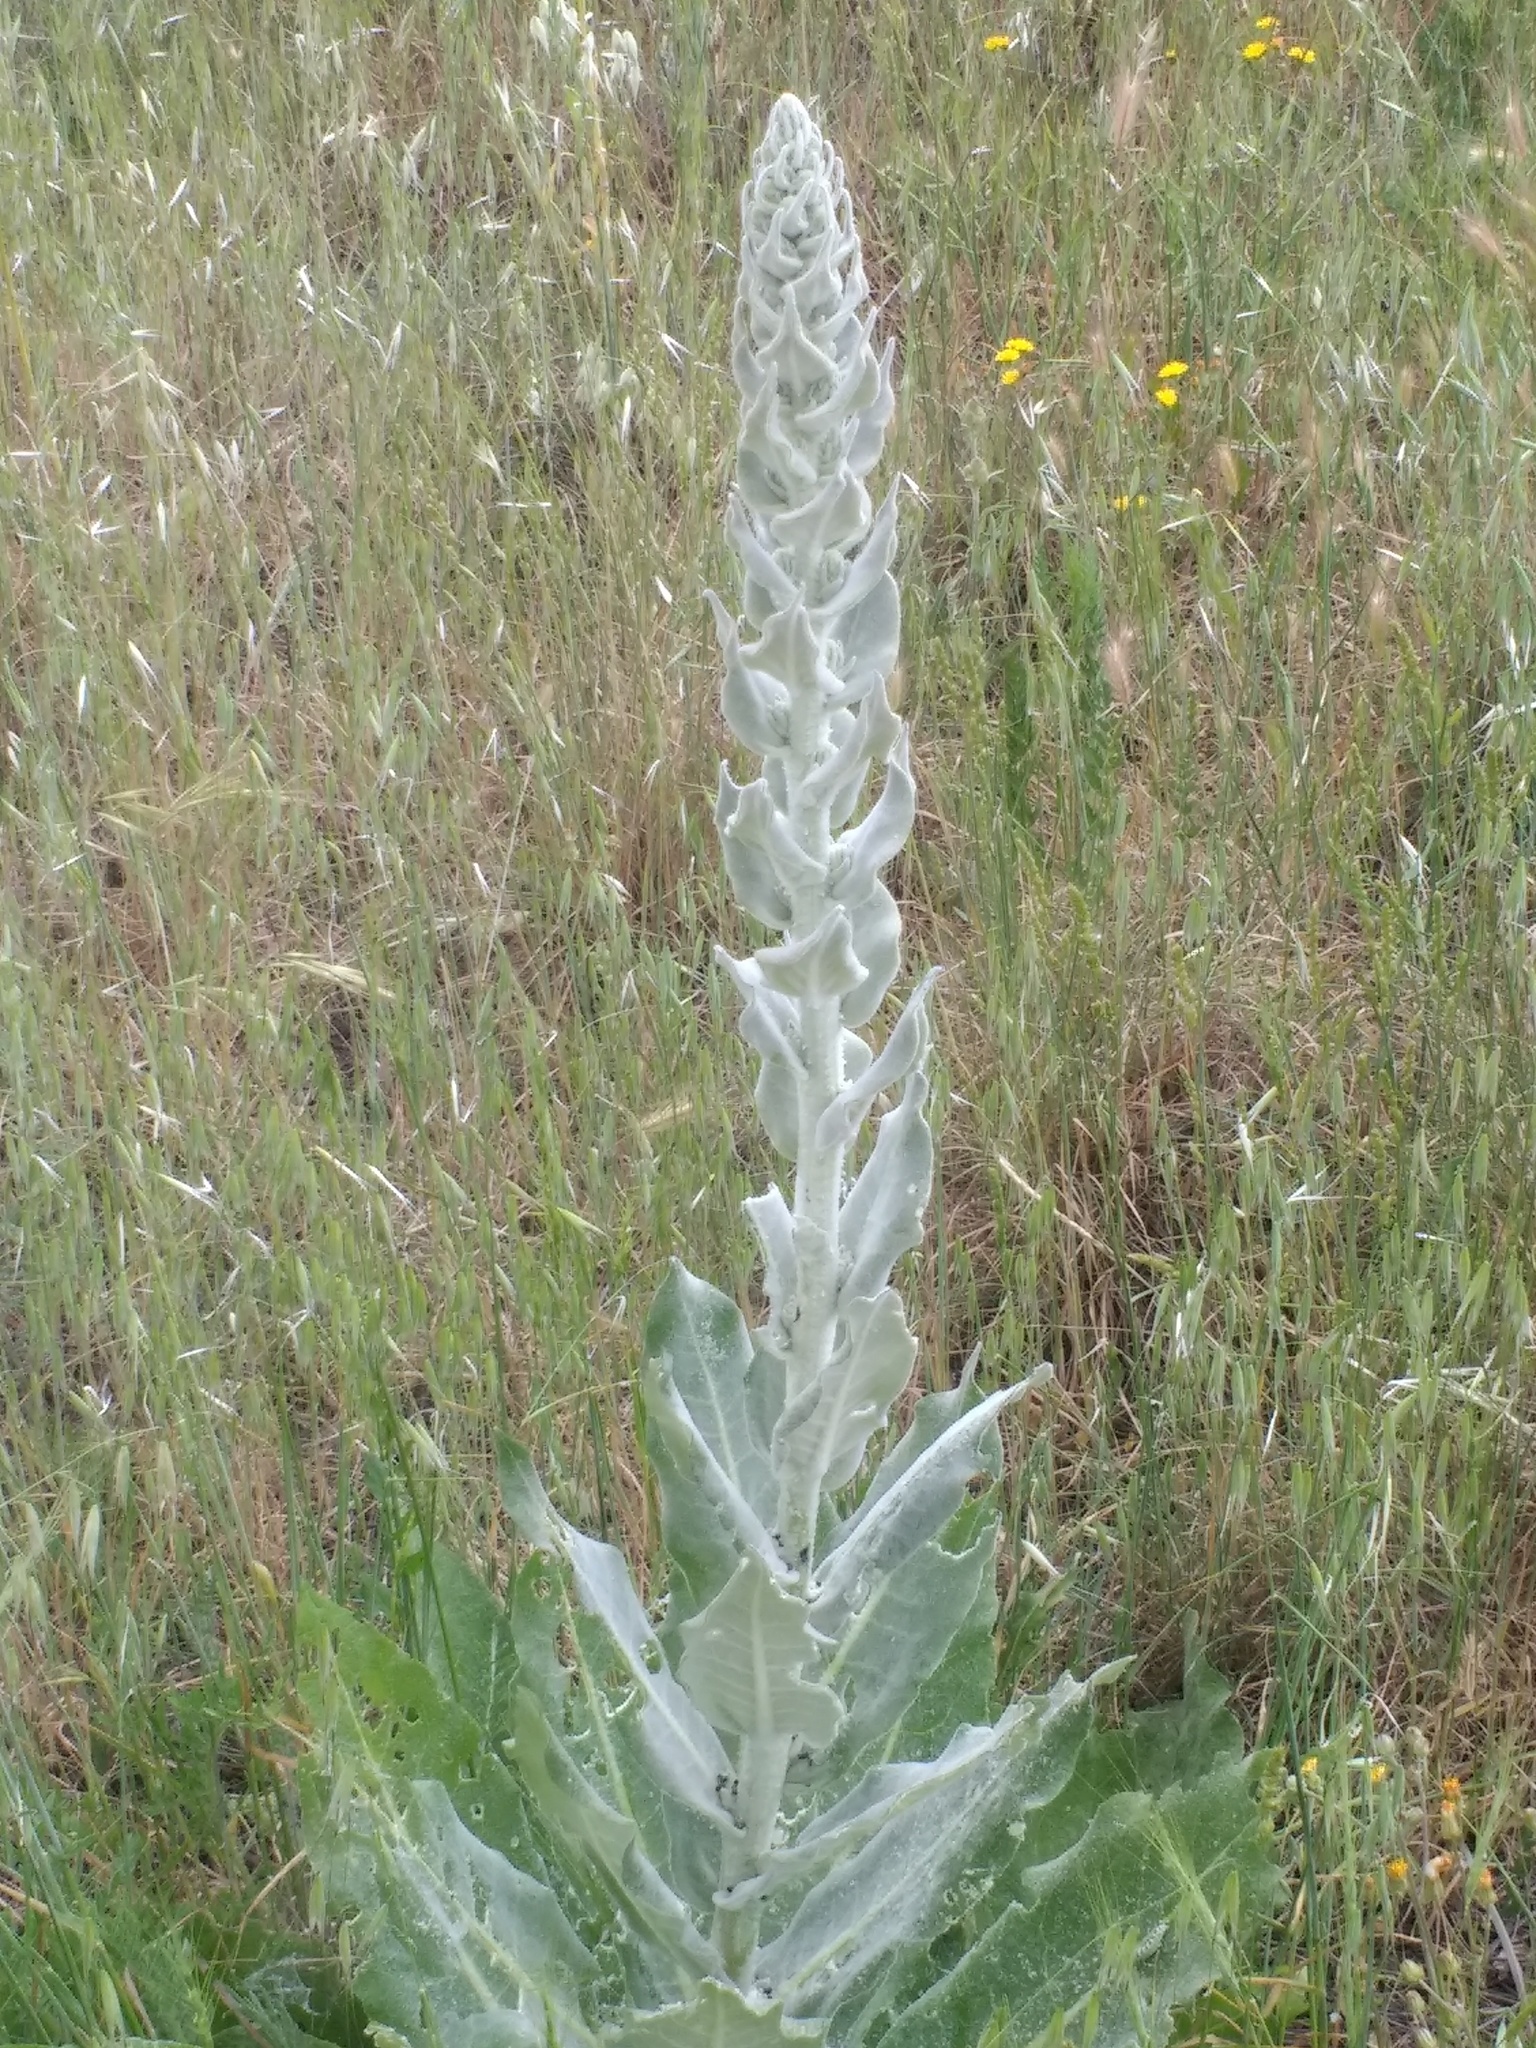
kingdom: Plantae
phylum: Tracheophyta
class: Magnoliopsida
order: Lamiales
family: Scrophulariaceae
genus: Verbascum
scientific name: Verbascum pulverulentum
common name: Broad-leaf mullein
